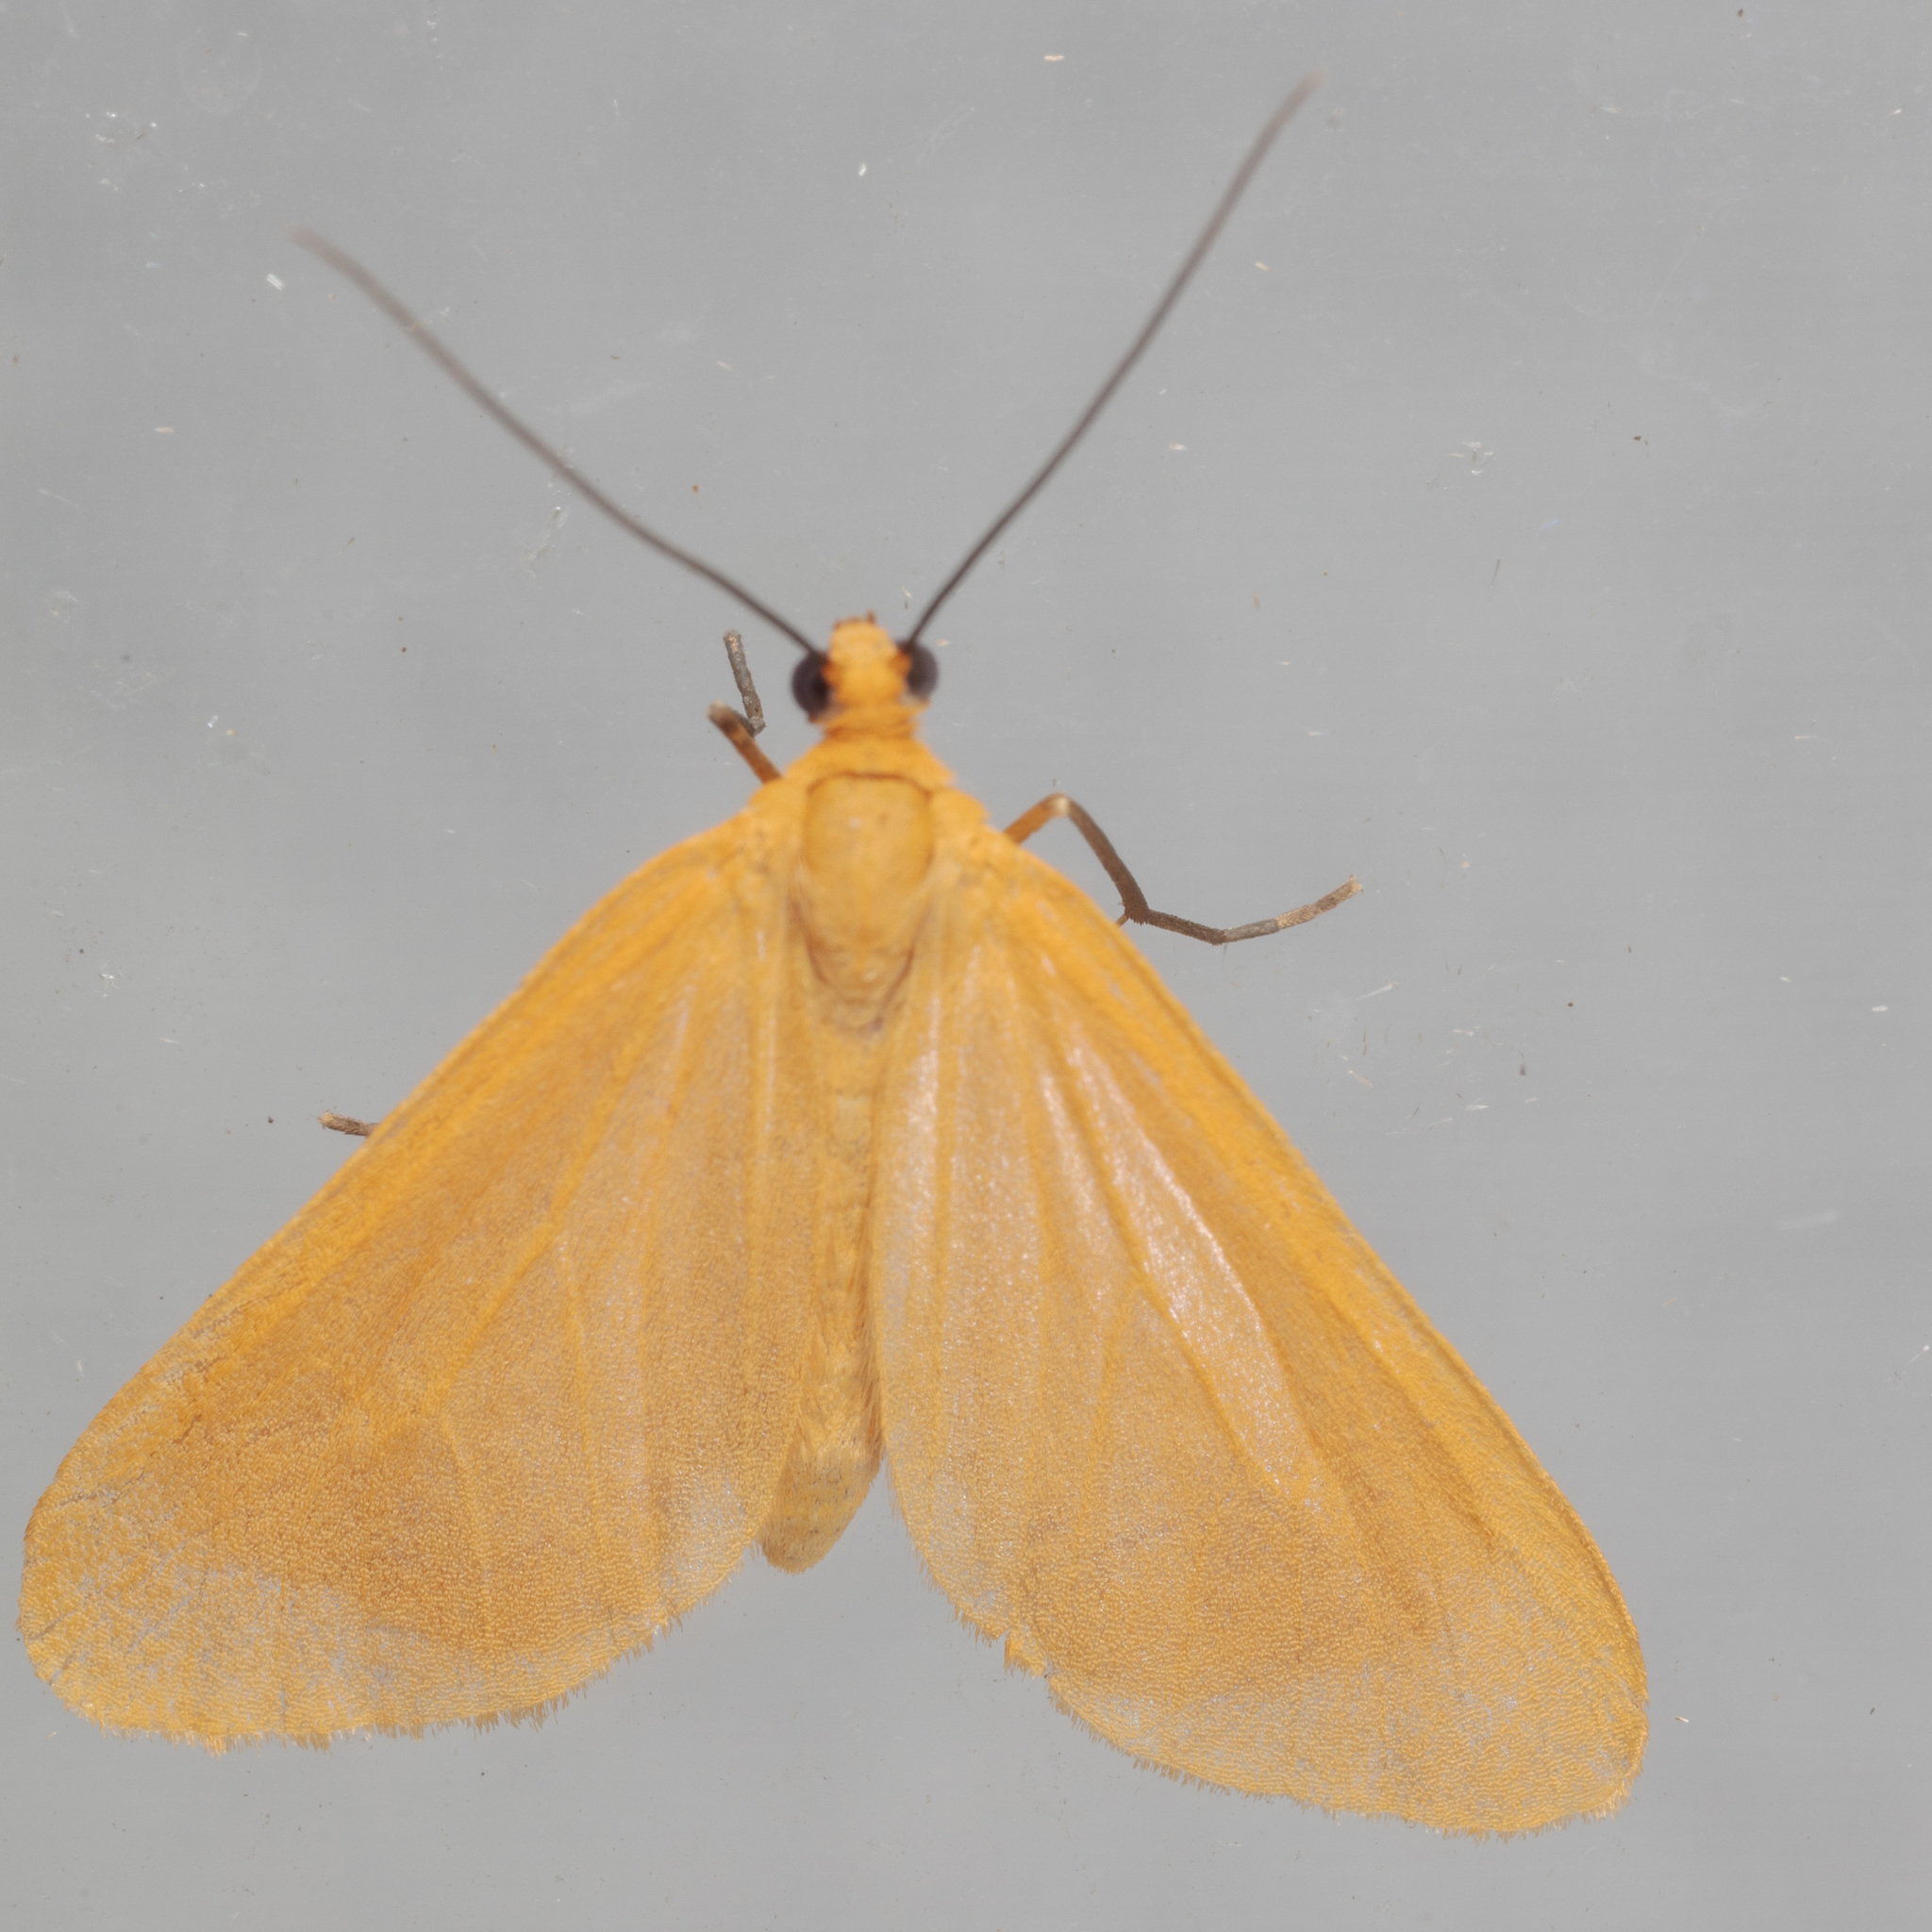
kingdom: Animalia
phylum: Arthropoda
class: Insecta
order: Lepidoptera
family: Geometridae
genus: Eubaphe
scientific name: Eubaphe unicolor
